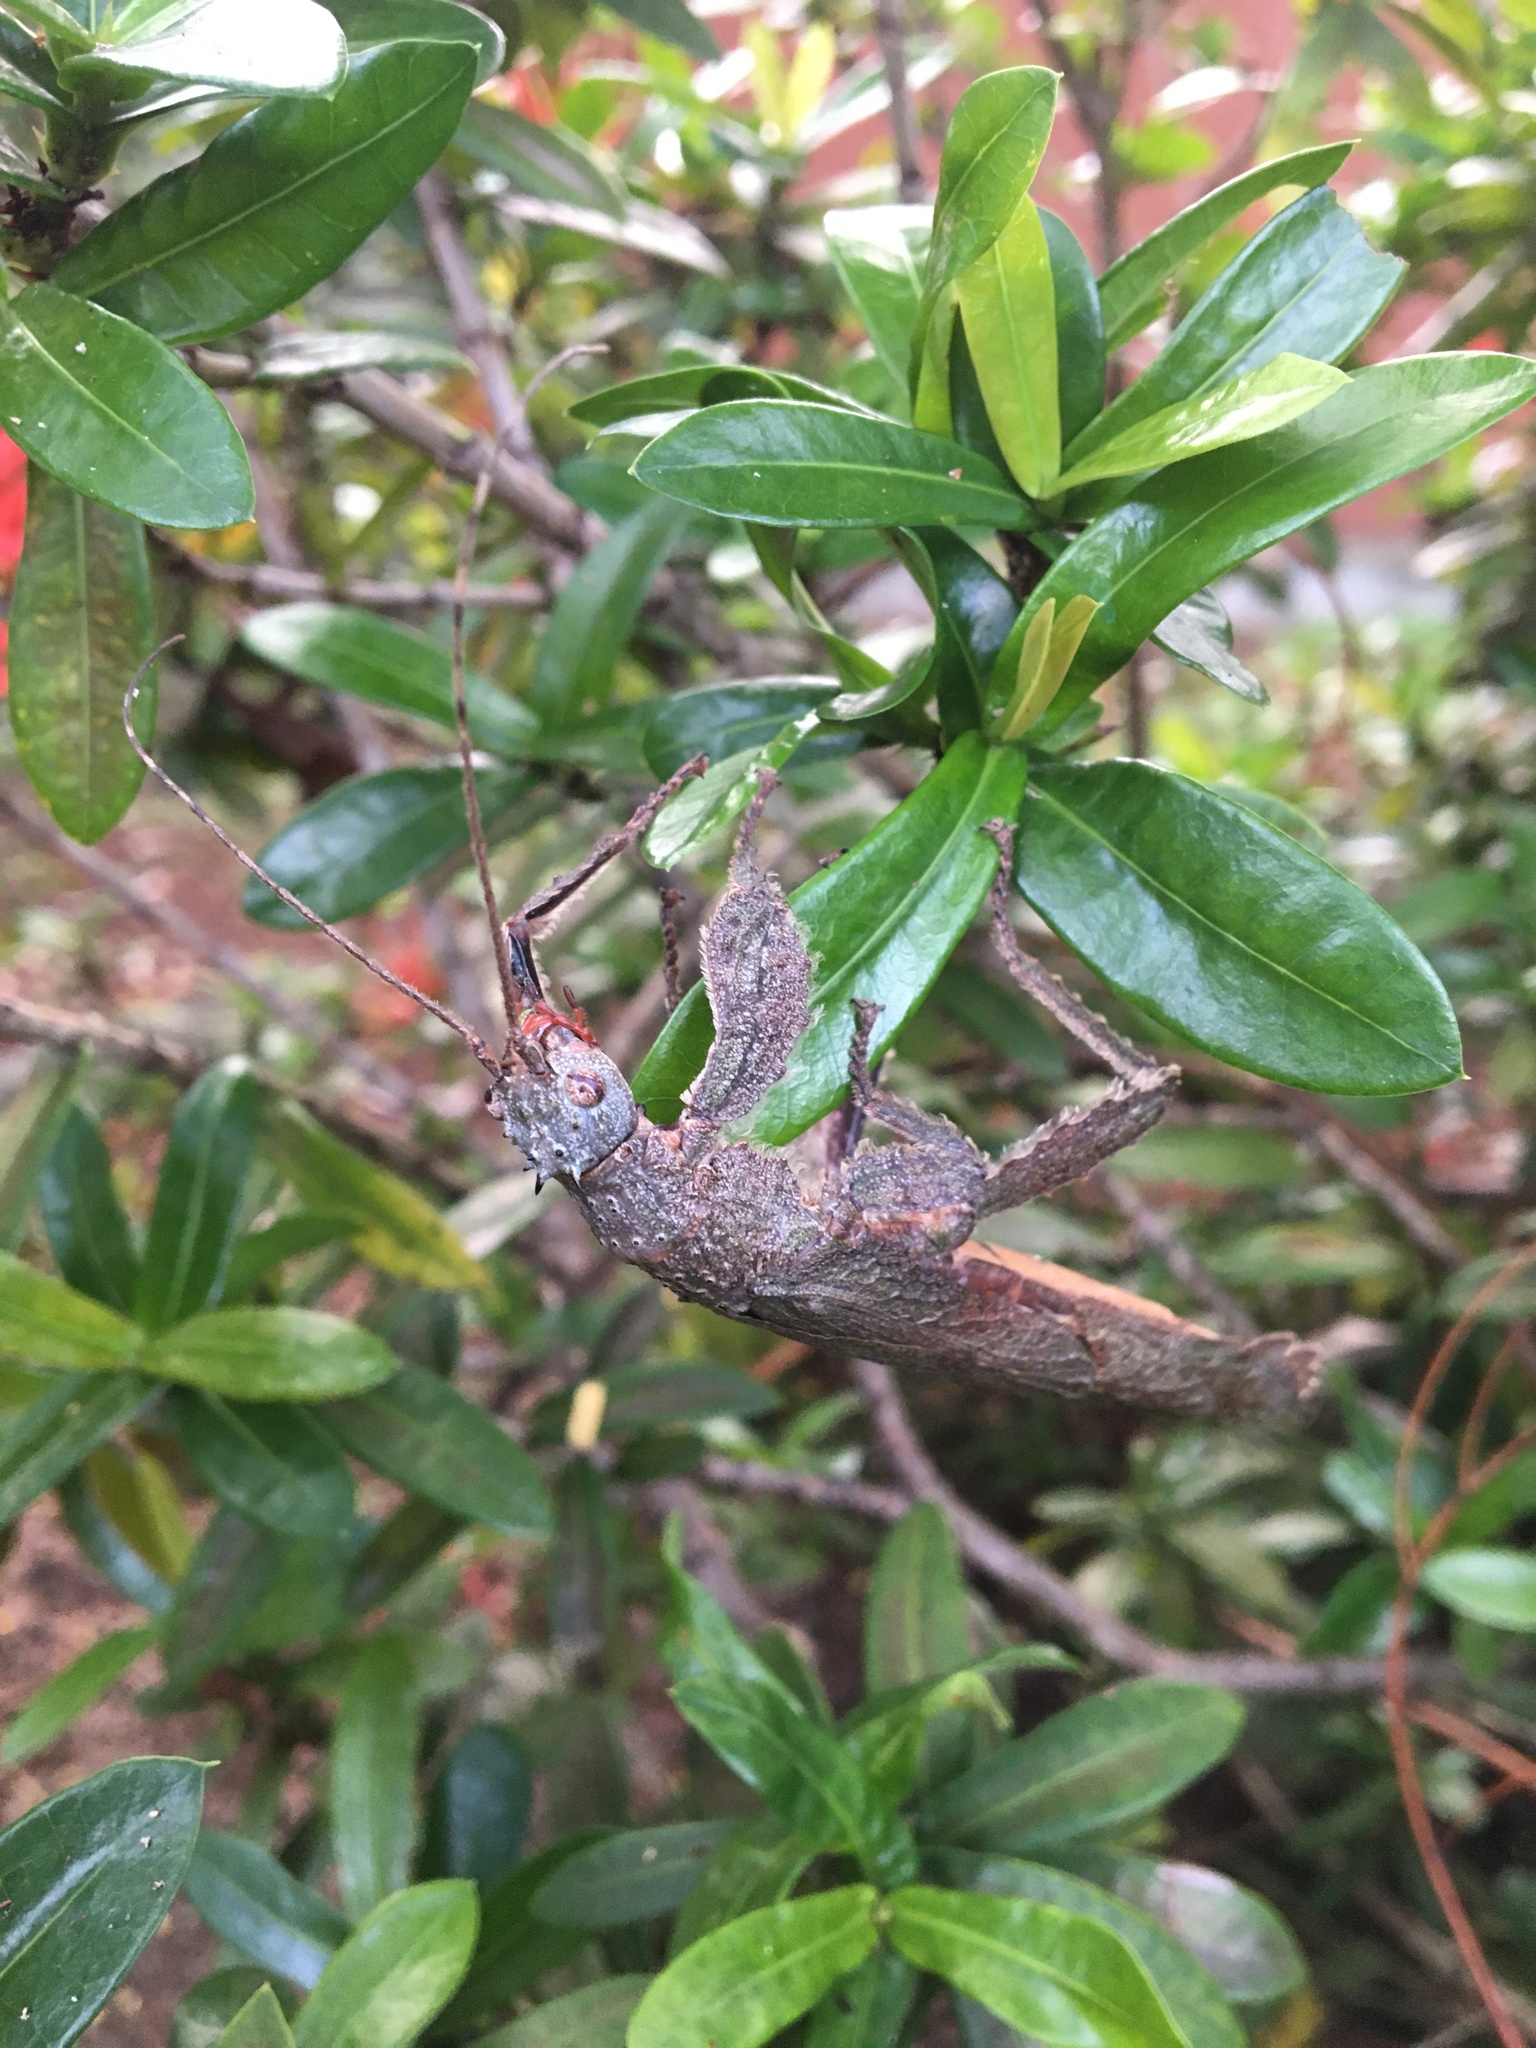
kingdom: Animalia
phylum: Arthropoda
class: Insecta
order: Phasmida
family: Prisopodidae
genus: Prisopus
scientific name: Prisopus ohrtmanni
